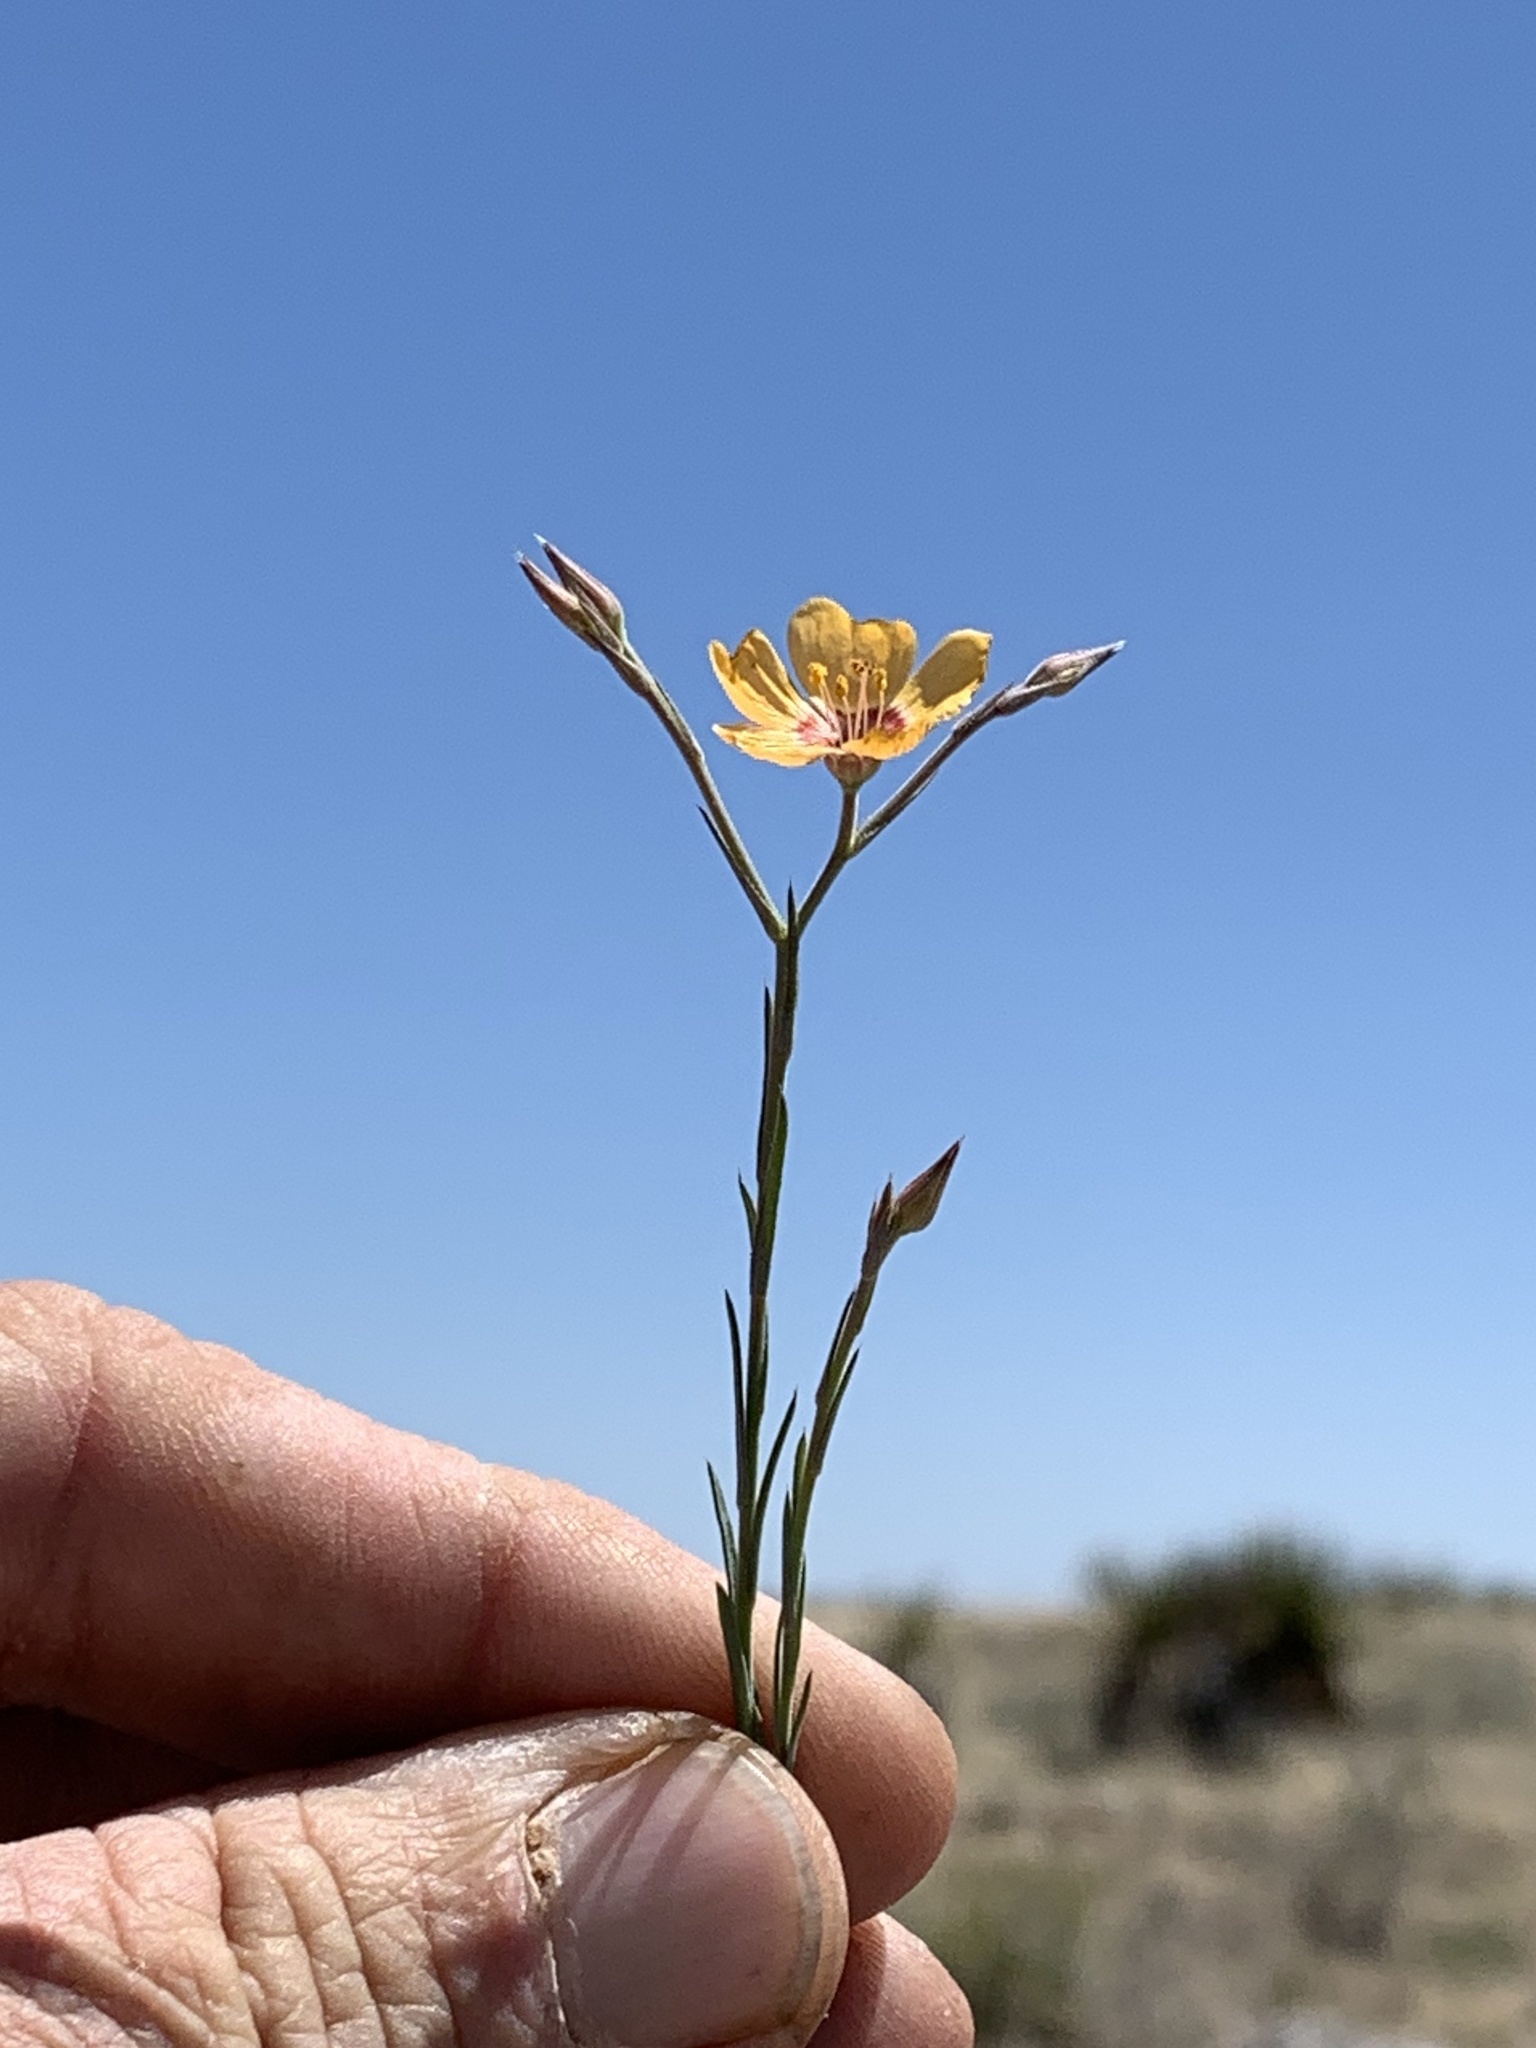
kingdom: Plantae
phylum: Tracheophyta
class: Magnoliopsida
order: Malpighiales
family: Linaceae
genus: Linum
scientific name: Linum puberulum
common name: Plains flax
